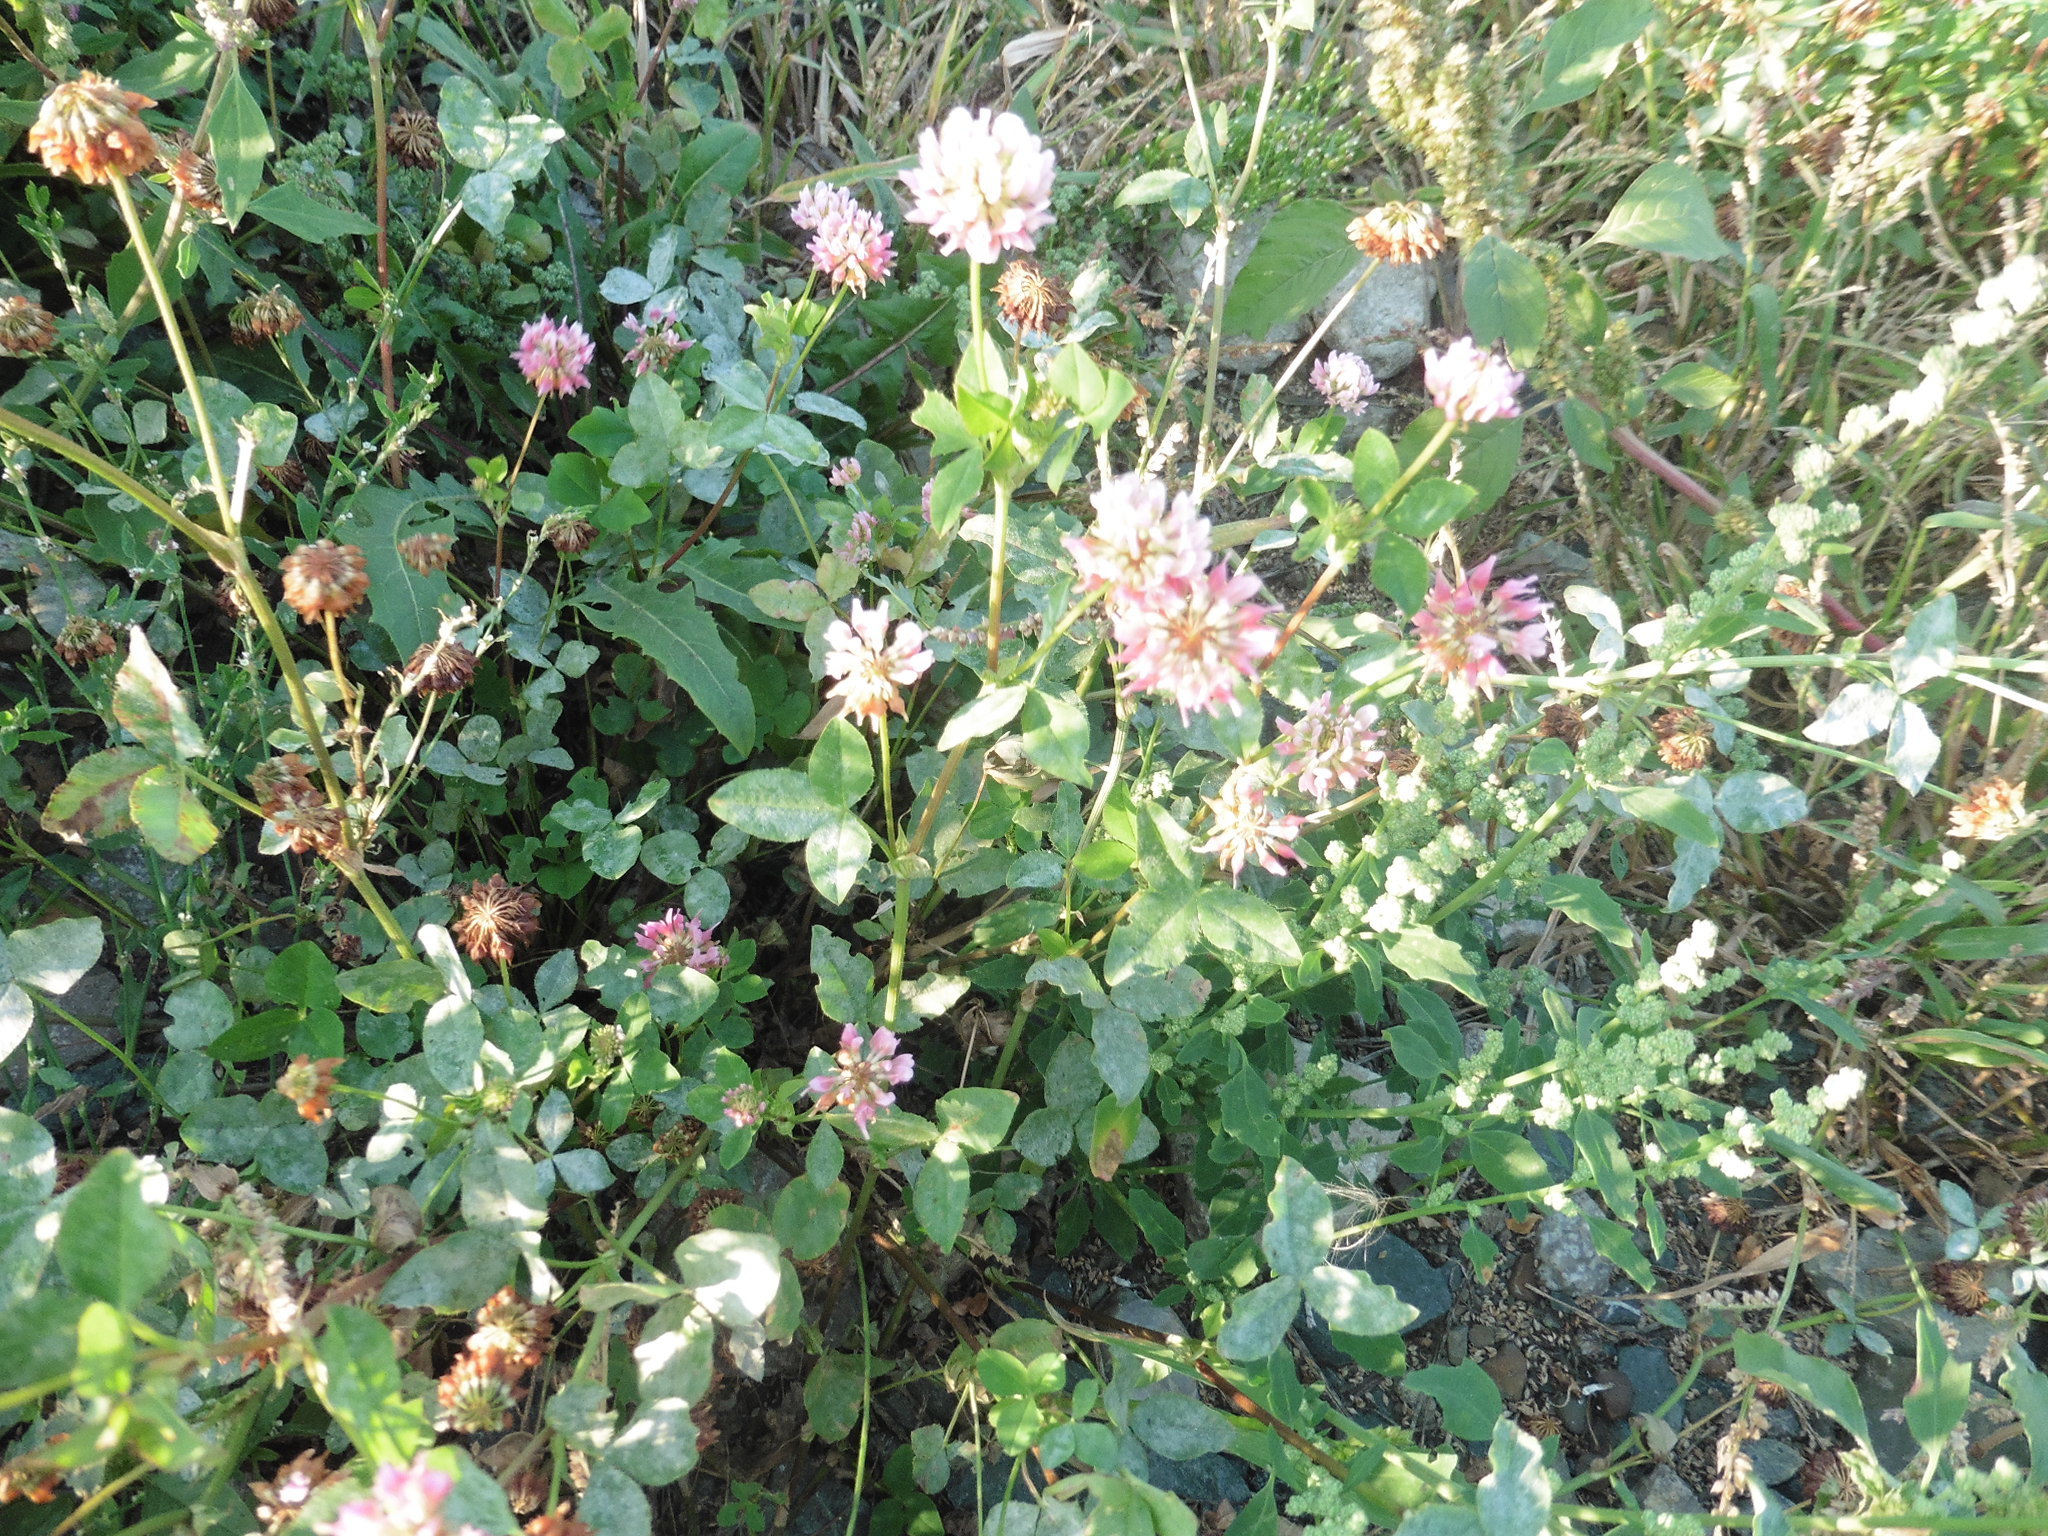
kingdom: Plantae
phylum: Tracheophyta
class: Magnoliopsida
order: Fabales
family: Fabaceae
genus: Trifolium
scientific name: Trifolium hybridum
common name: Alsike clover
